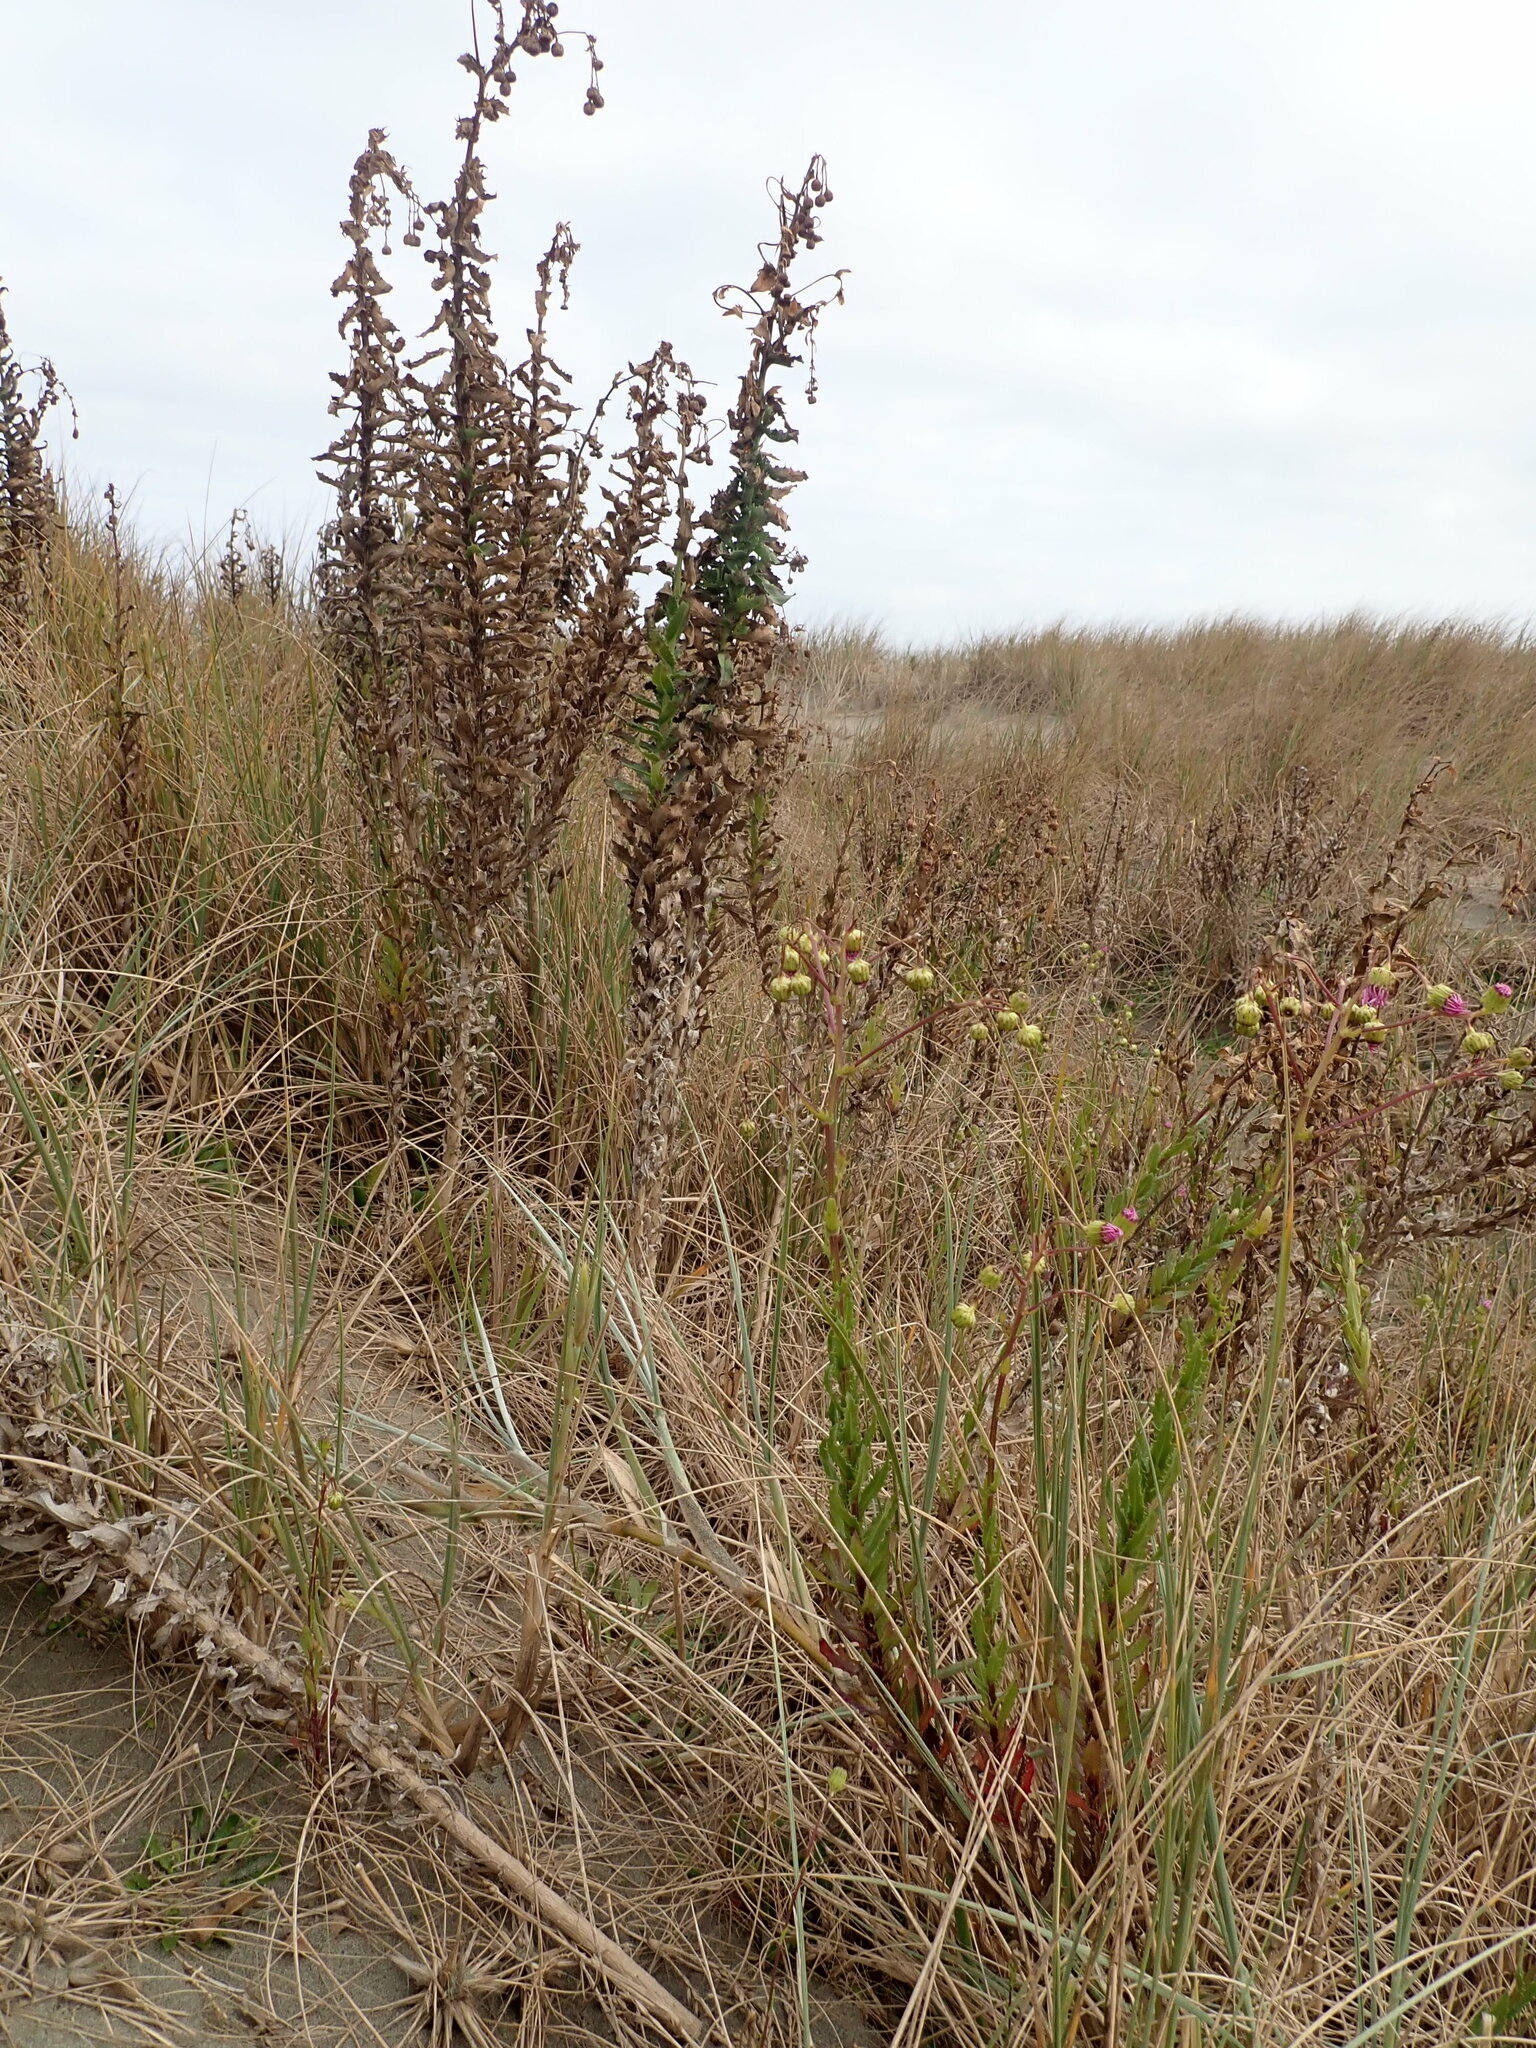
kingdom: Plantae
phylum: Tracheophyta
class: Magnoliopsida
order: Asterales
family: Asteraceae
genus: Senecio
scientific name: Senecio glastifolius
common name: Woad-leaved ragwort
